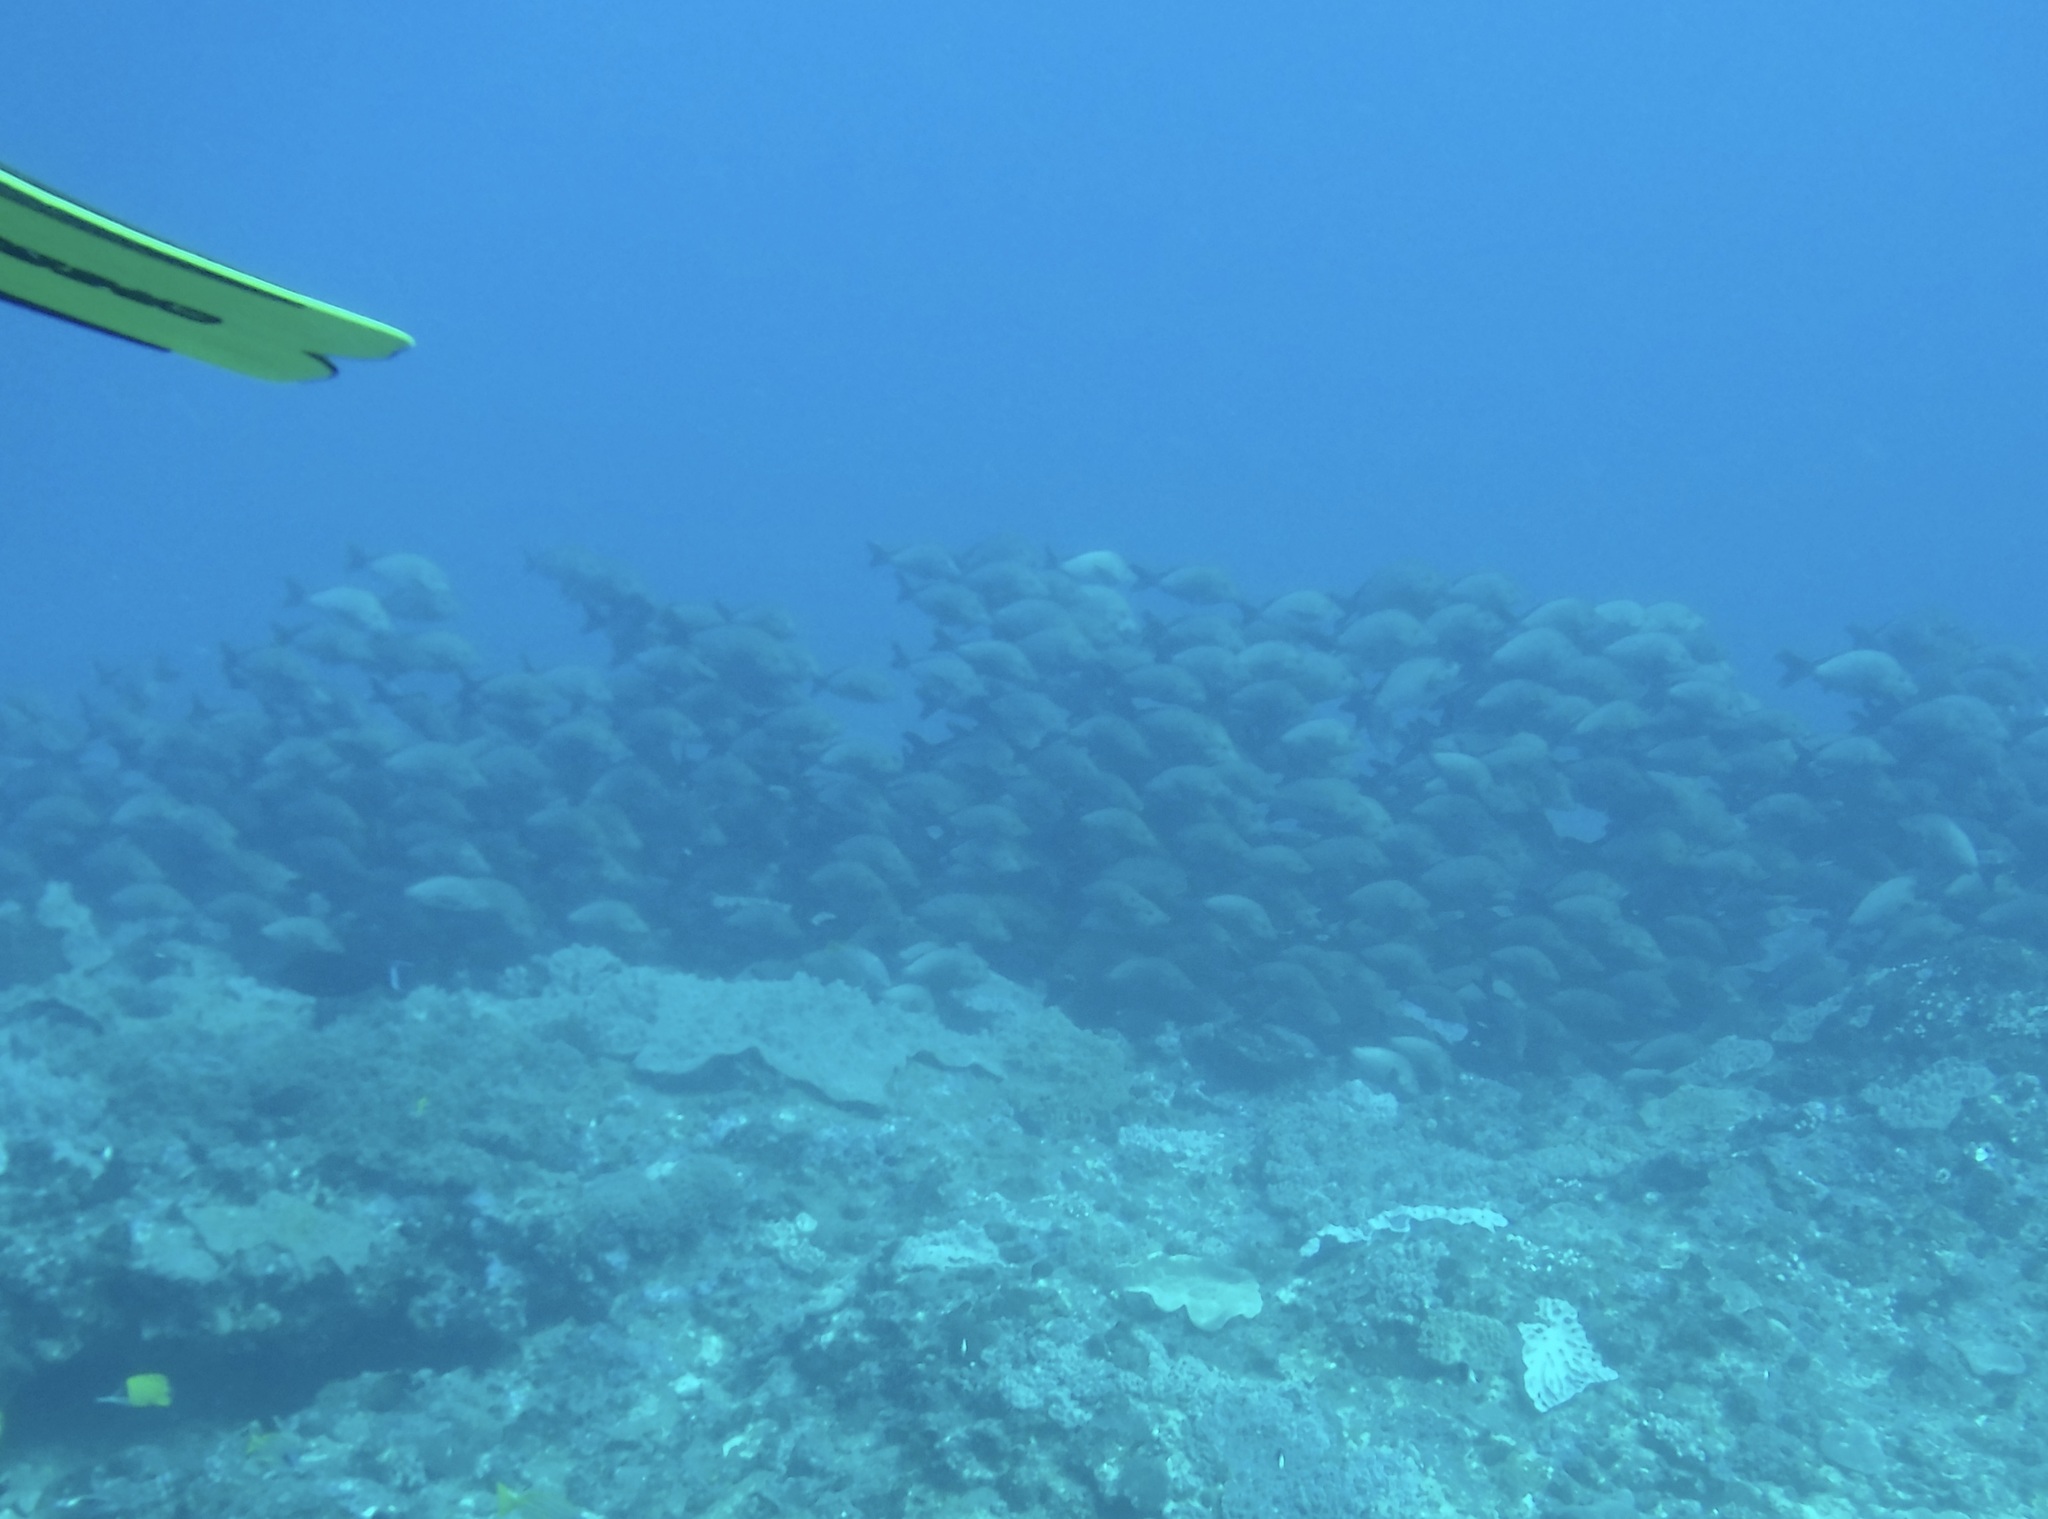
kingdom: Animalia
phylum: Chordata
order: Perciformes
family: Lutjanidae
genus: Lutjanus
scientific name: Lutjanus gibbus
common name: Humpback snapper
